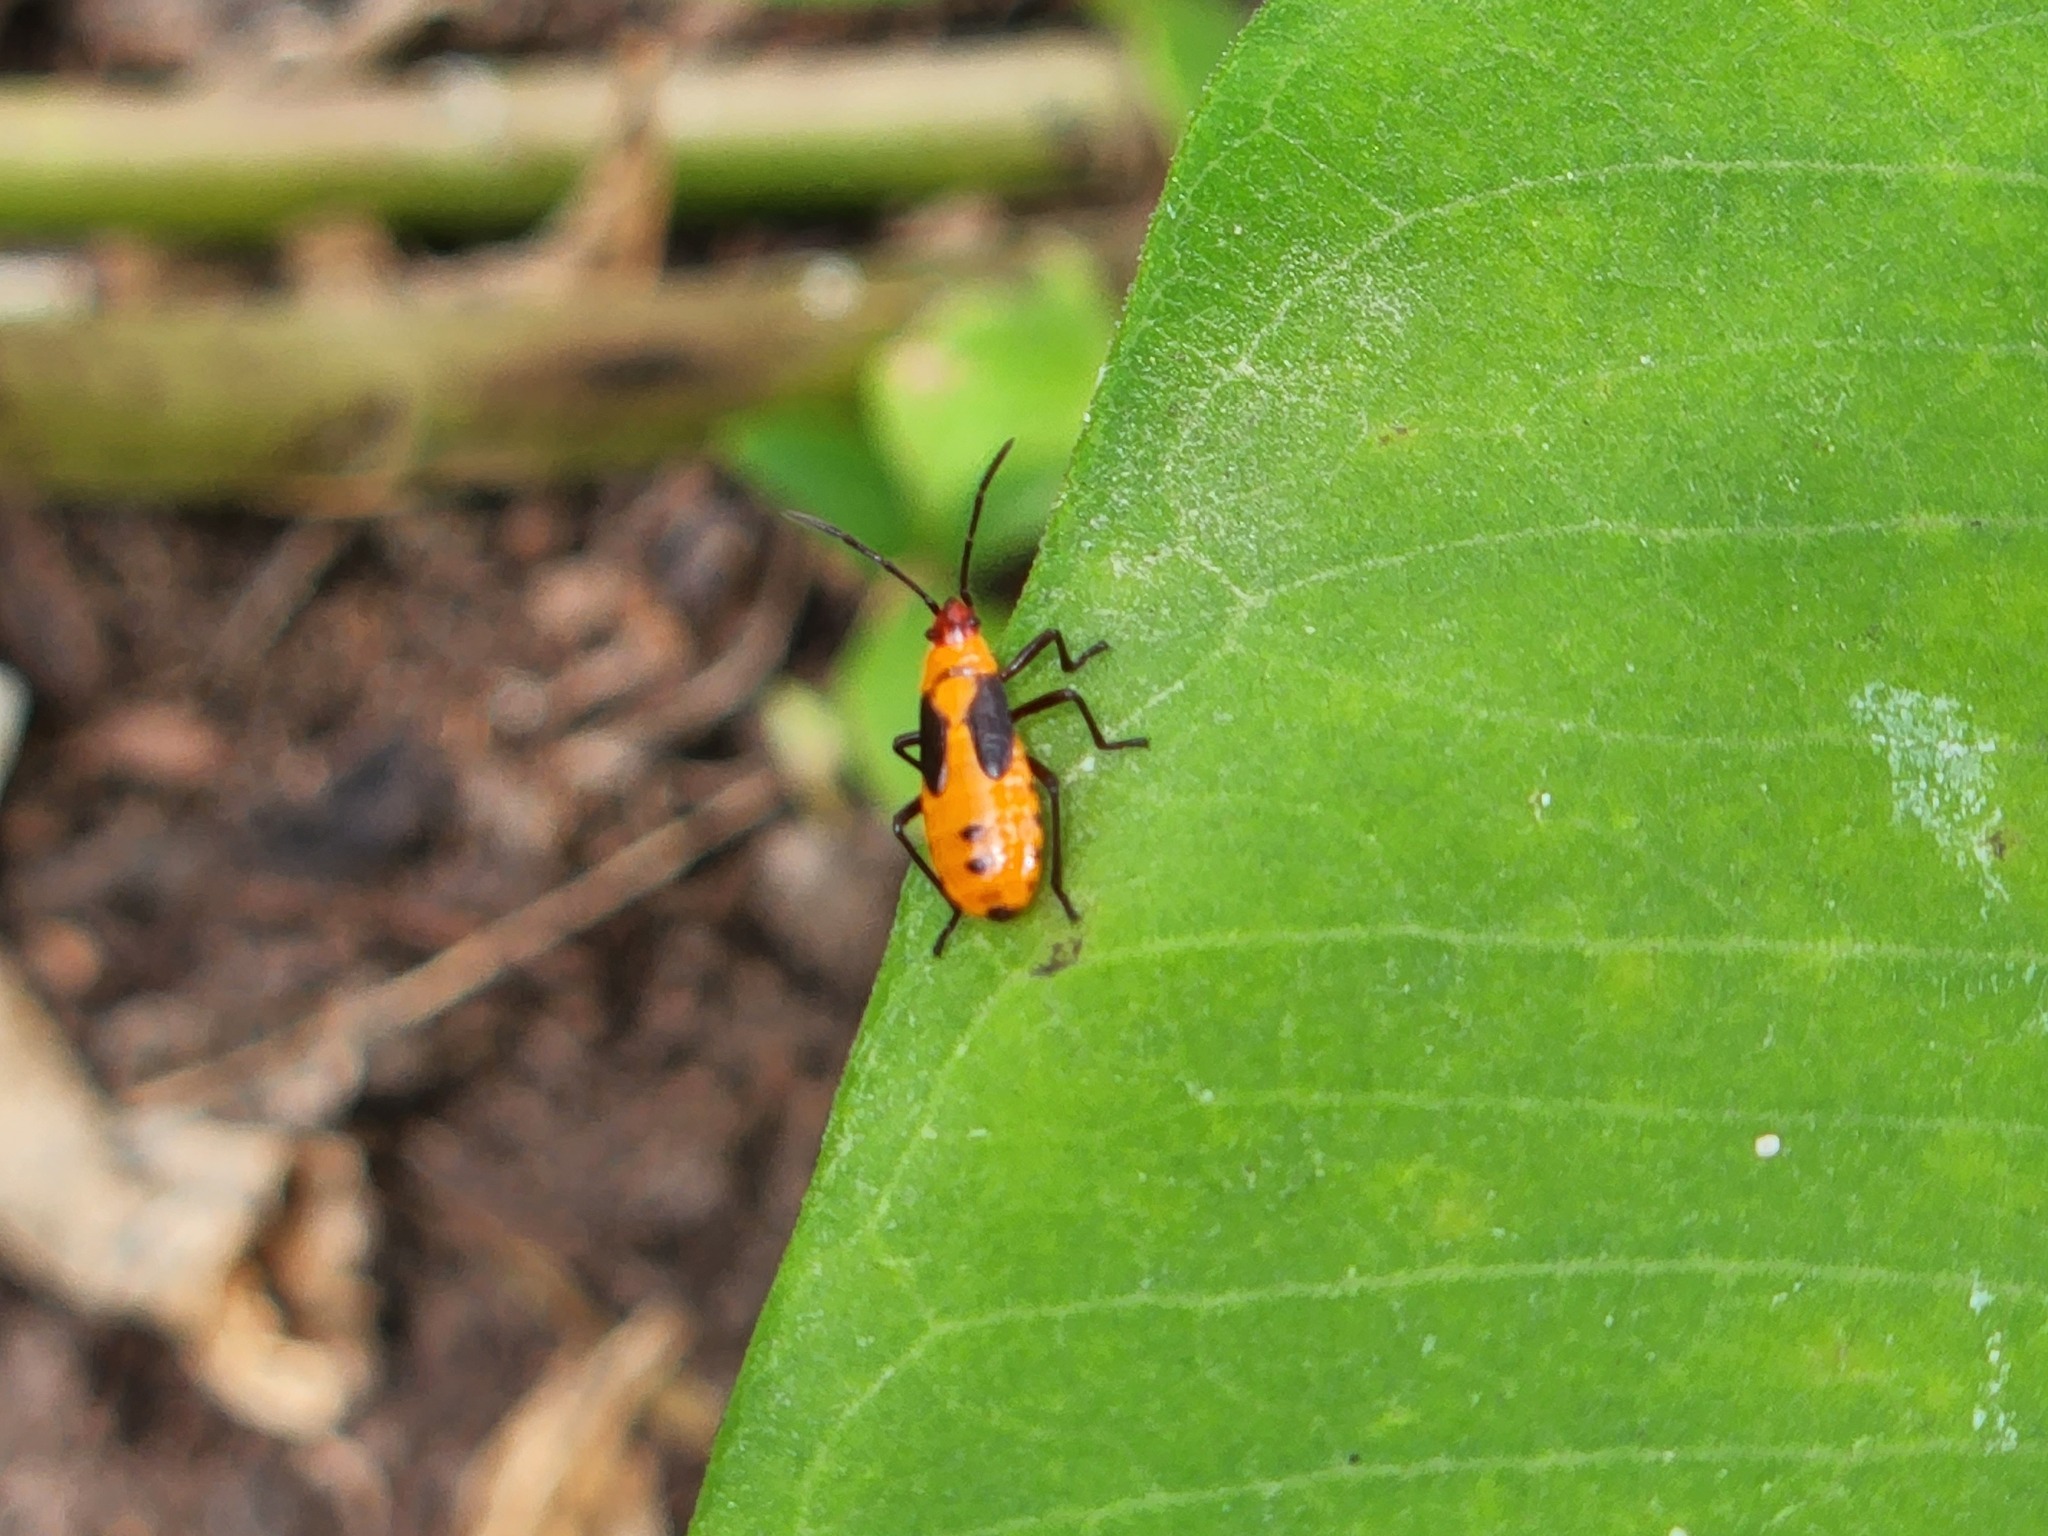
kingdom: Animalia
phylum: Arthropoda
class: Insecta
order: Hemiptera
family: Lygaeidae
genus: Oncopeltus
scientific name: Oncopeltus fasciatus
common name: Large milkweed bug
